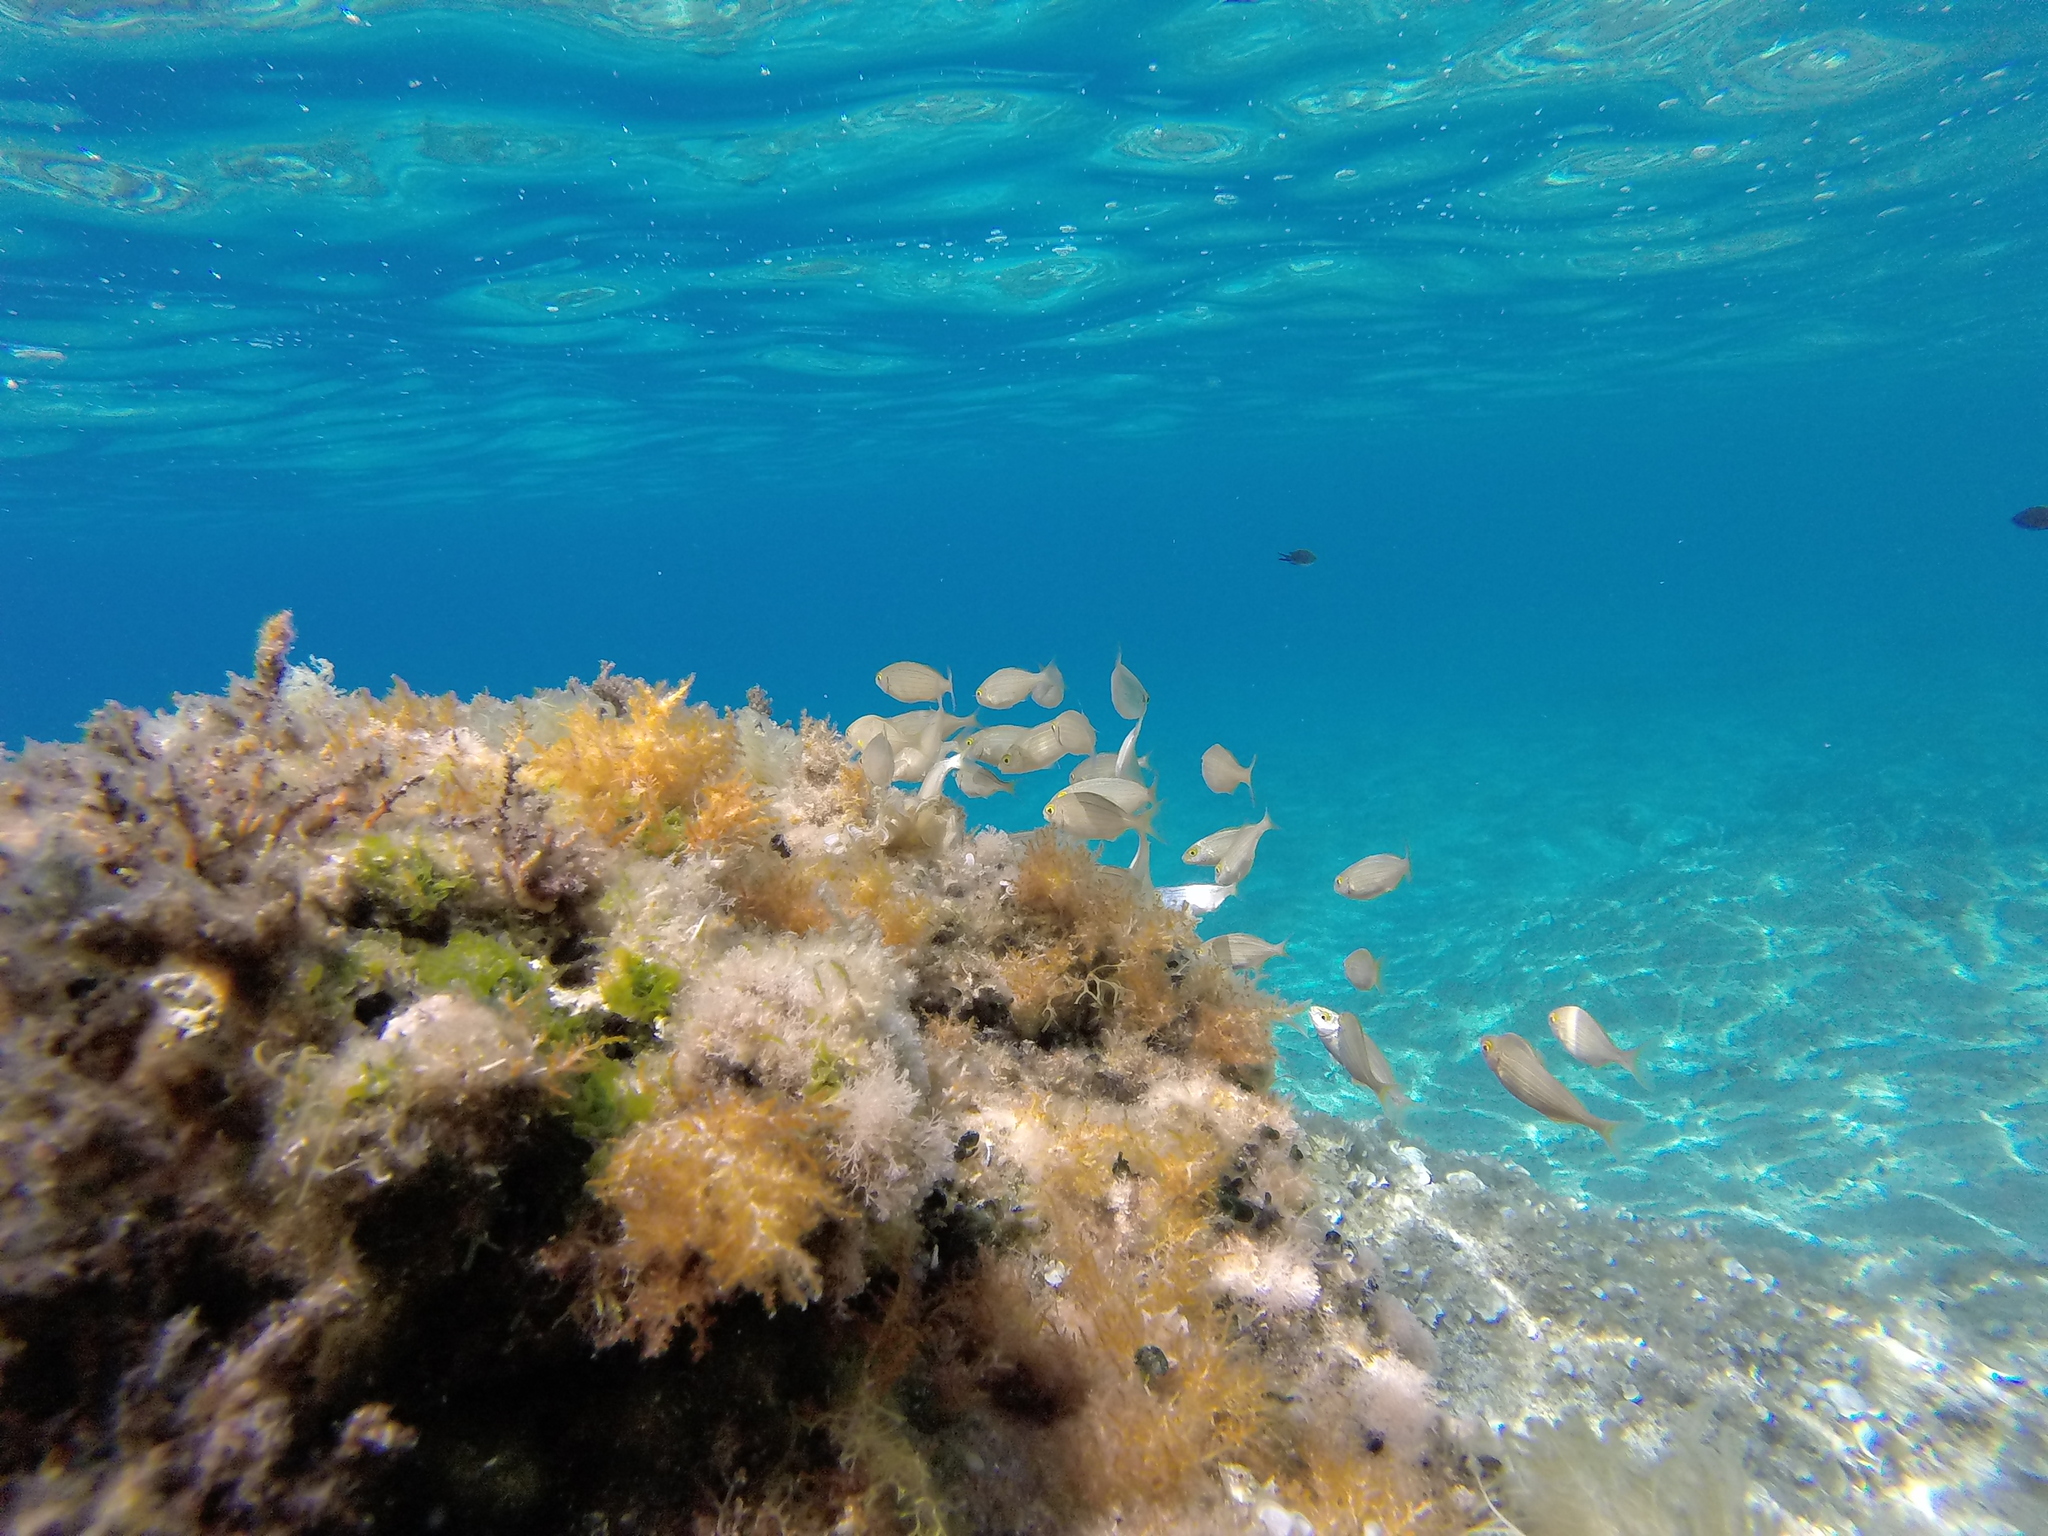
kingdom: Animalia
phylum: Chordata
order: Perciformes
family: Sparidae
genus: Sarpa
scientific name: Sarpa salpa
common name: Salema
